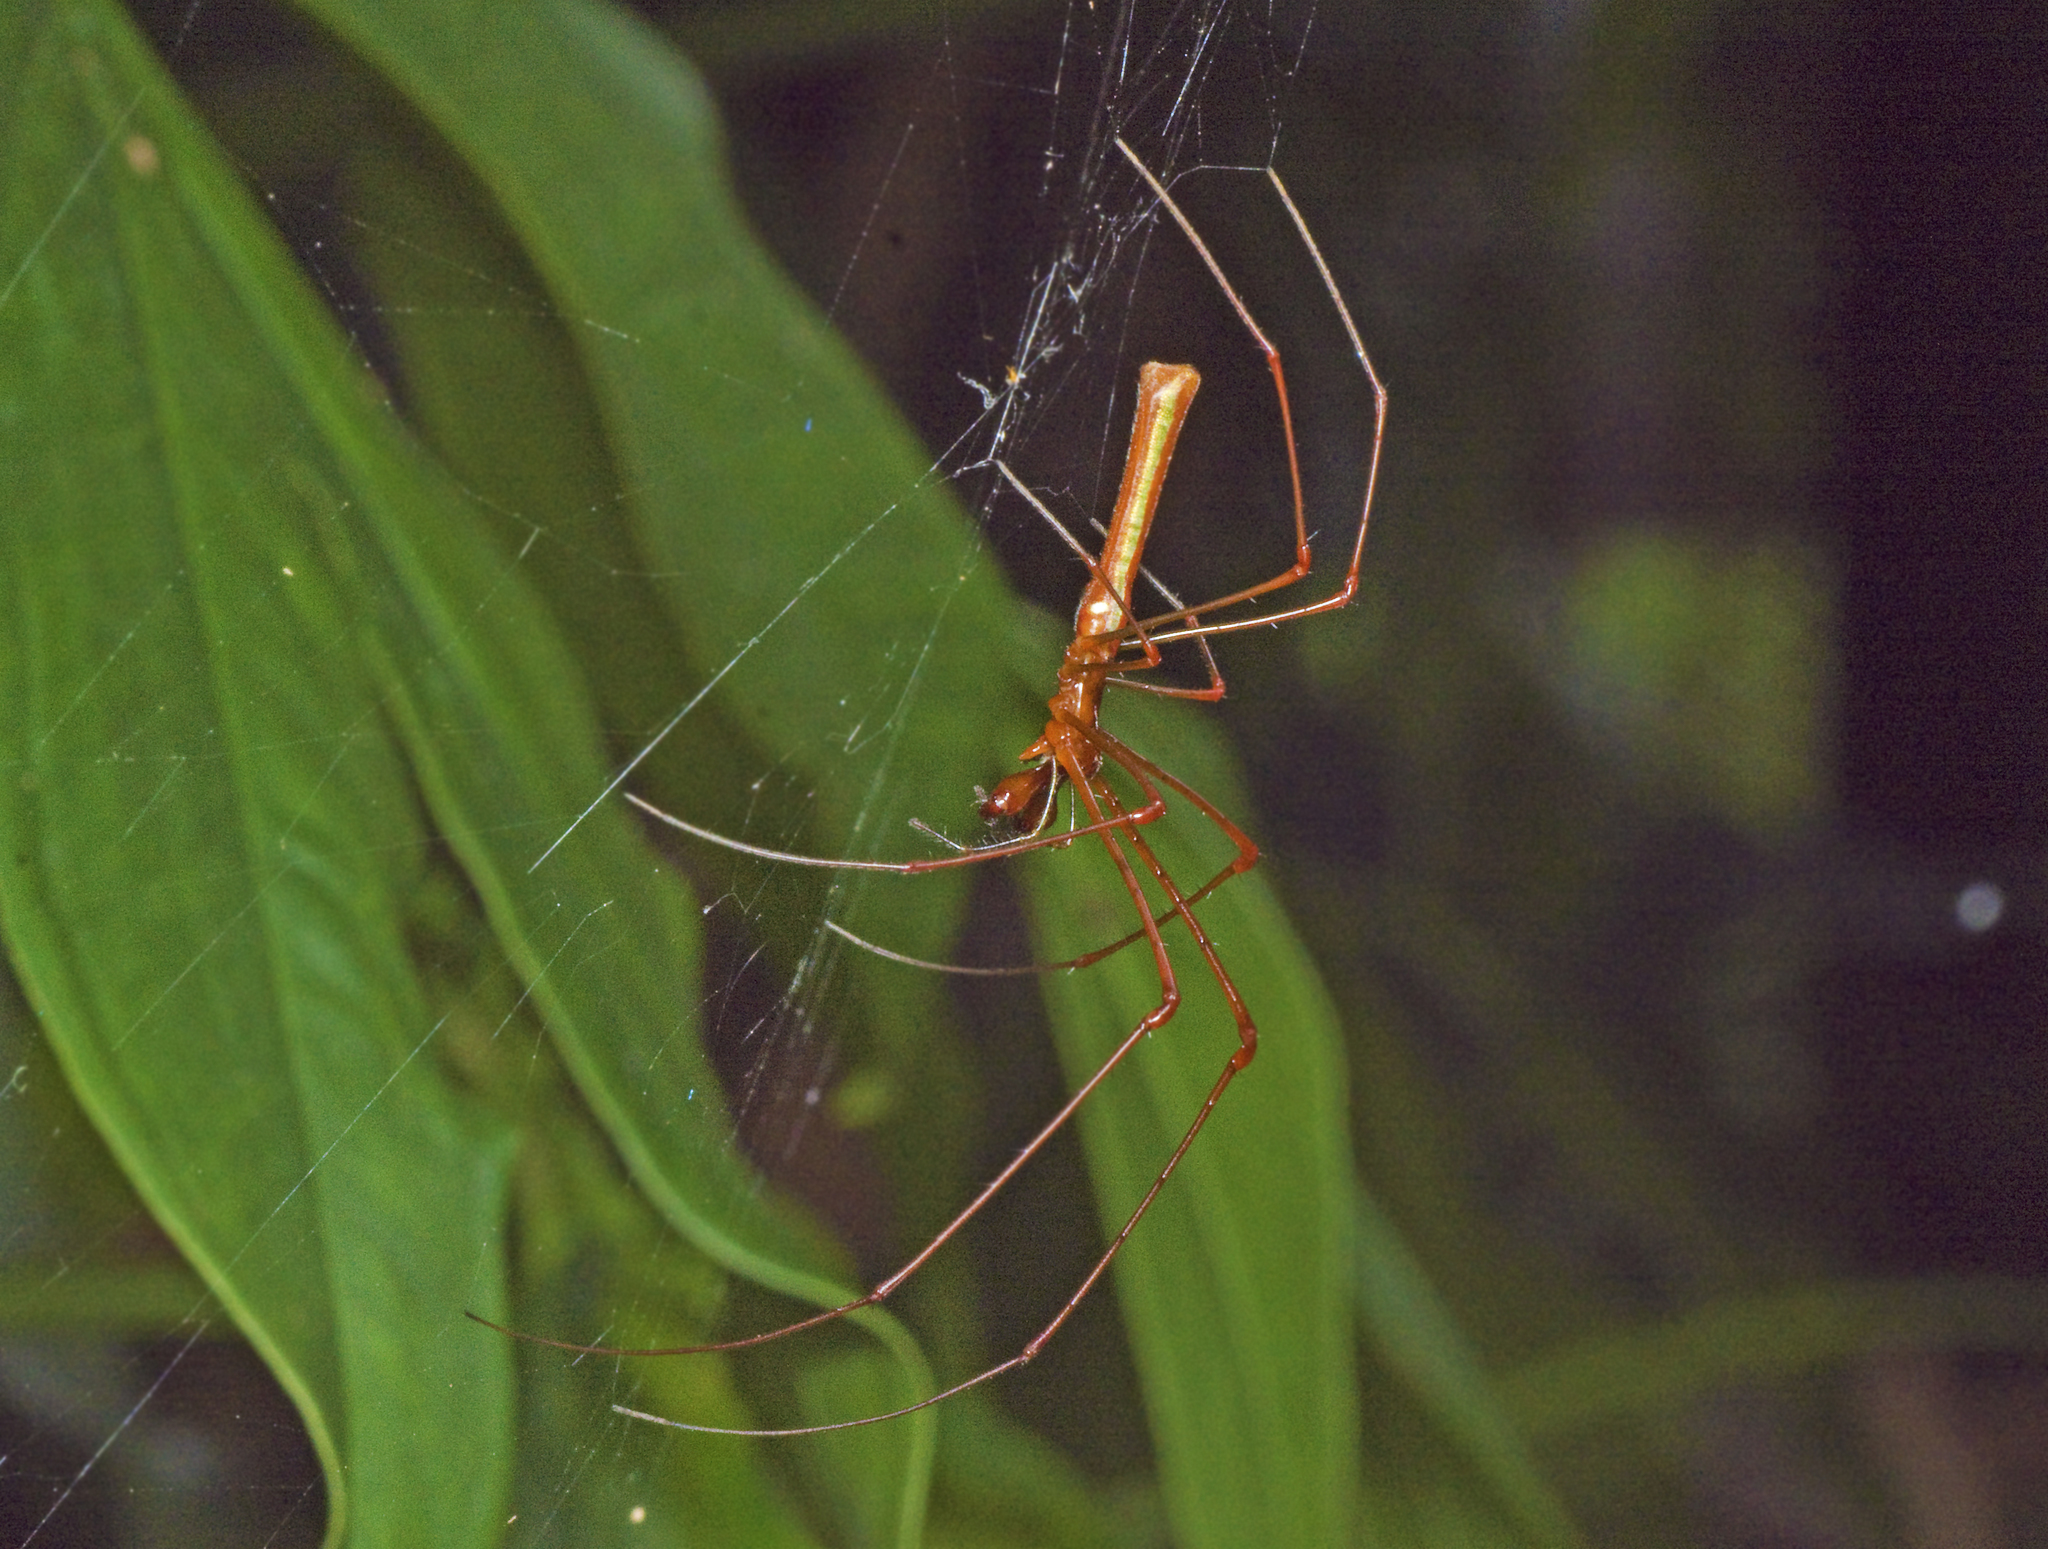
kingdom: Animalia
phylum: Arthropoda
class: Arachnida
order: Araneae
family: Tetragnathidae
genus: Tetragnatha
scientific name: Tetragnatha rubriventris
